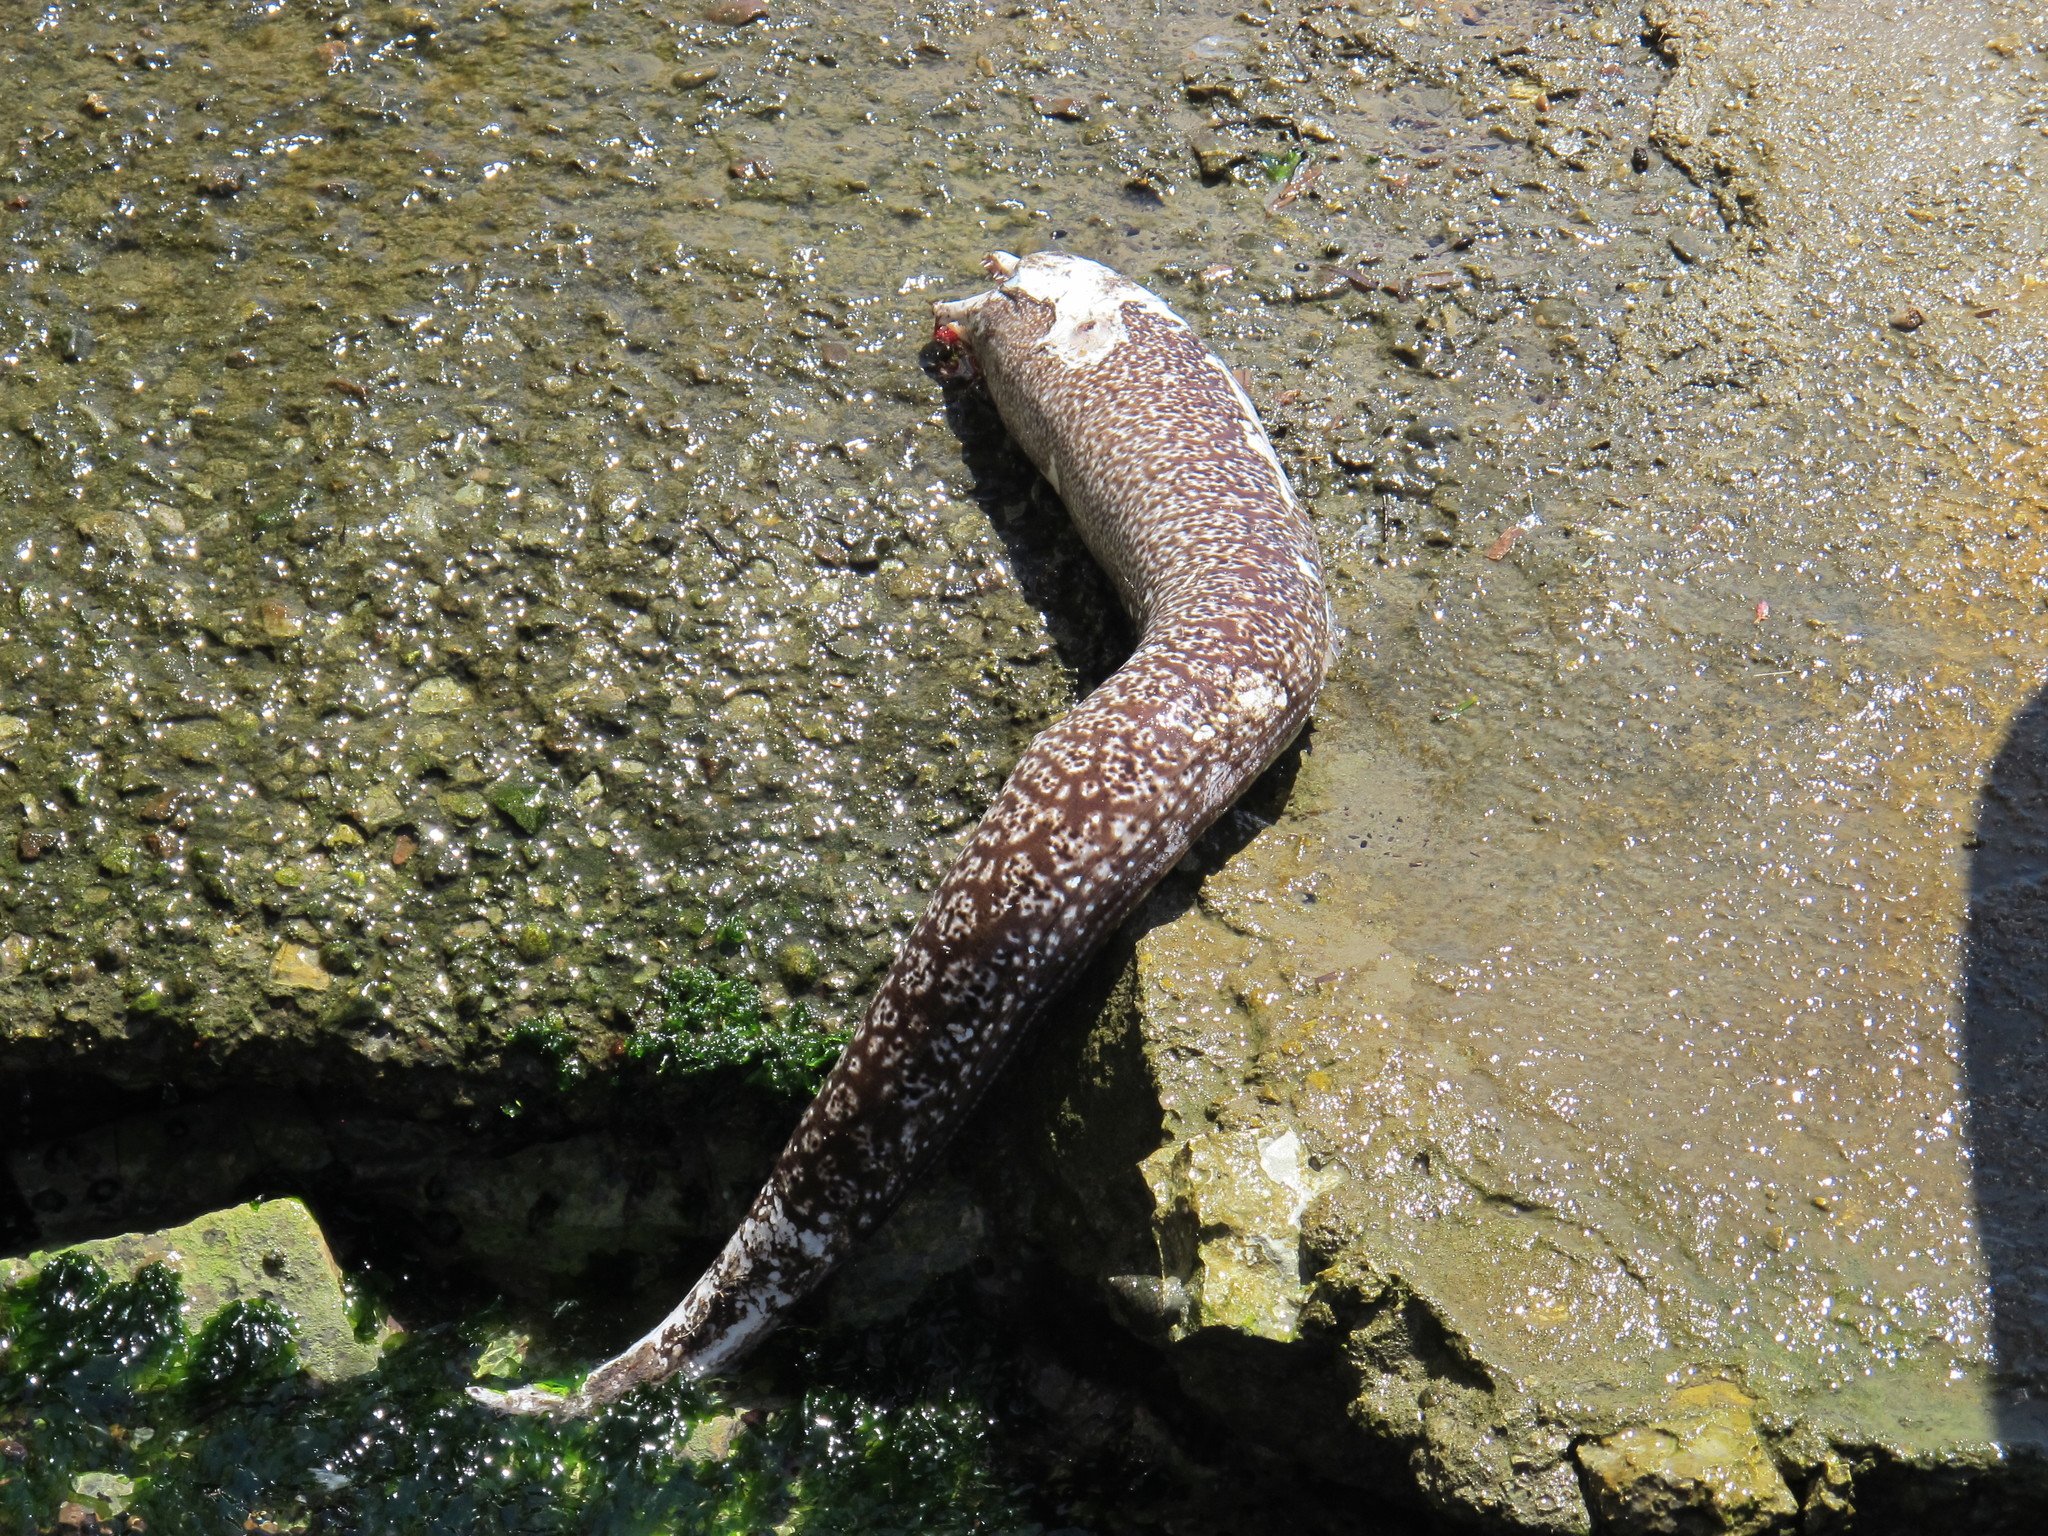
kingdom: Animalia
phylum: Chordata
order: Anguilliformes
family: Muraenidae
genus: Muraena
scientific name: Muraena helena
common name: Mediterranean moray
